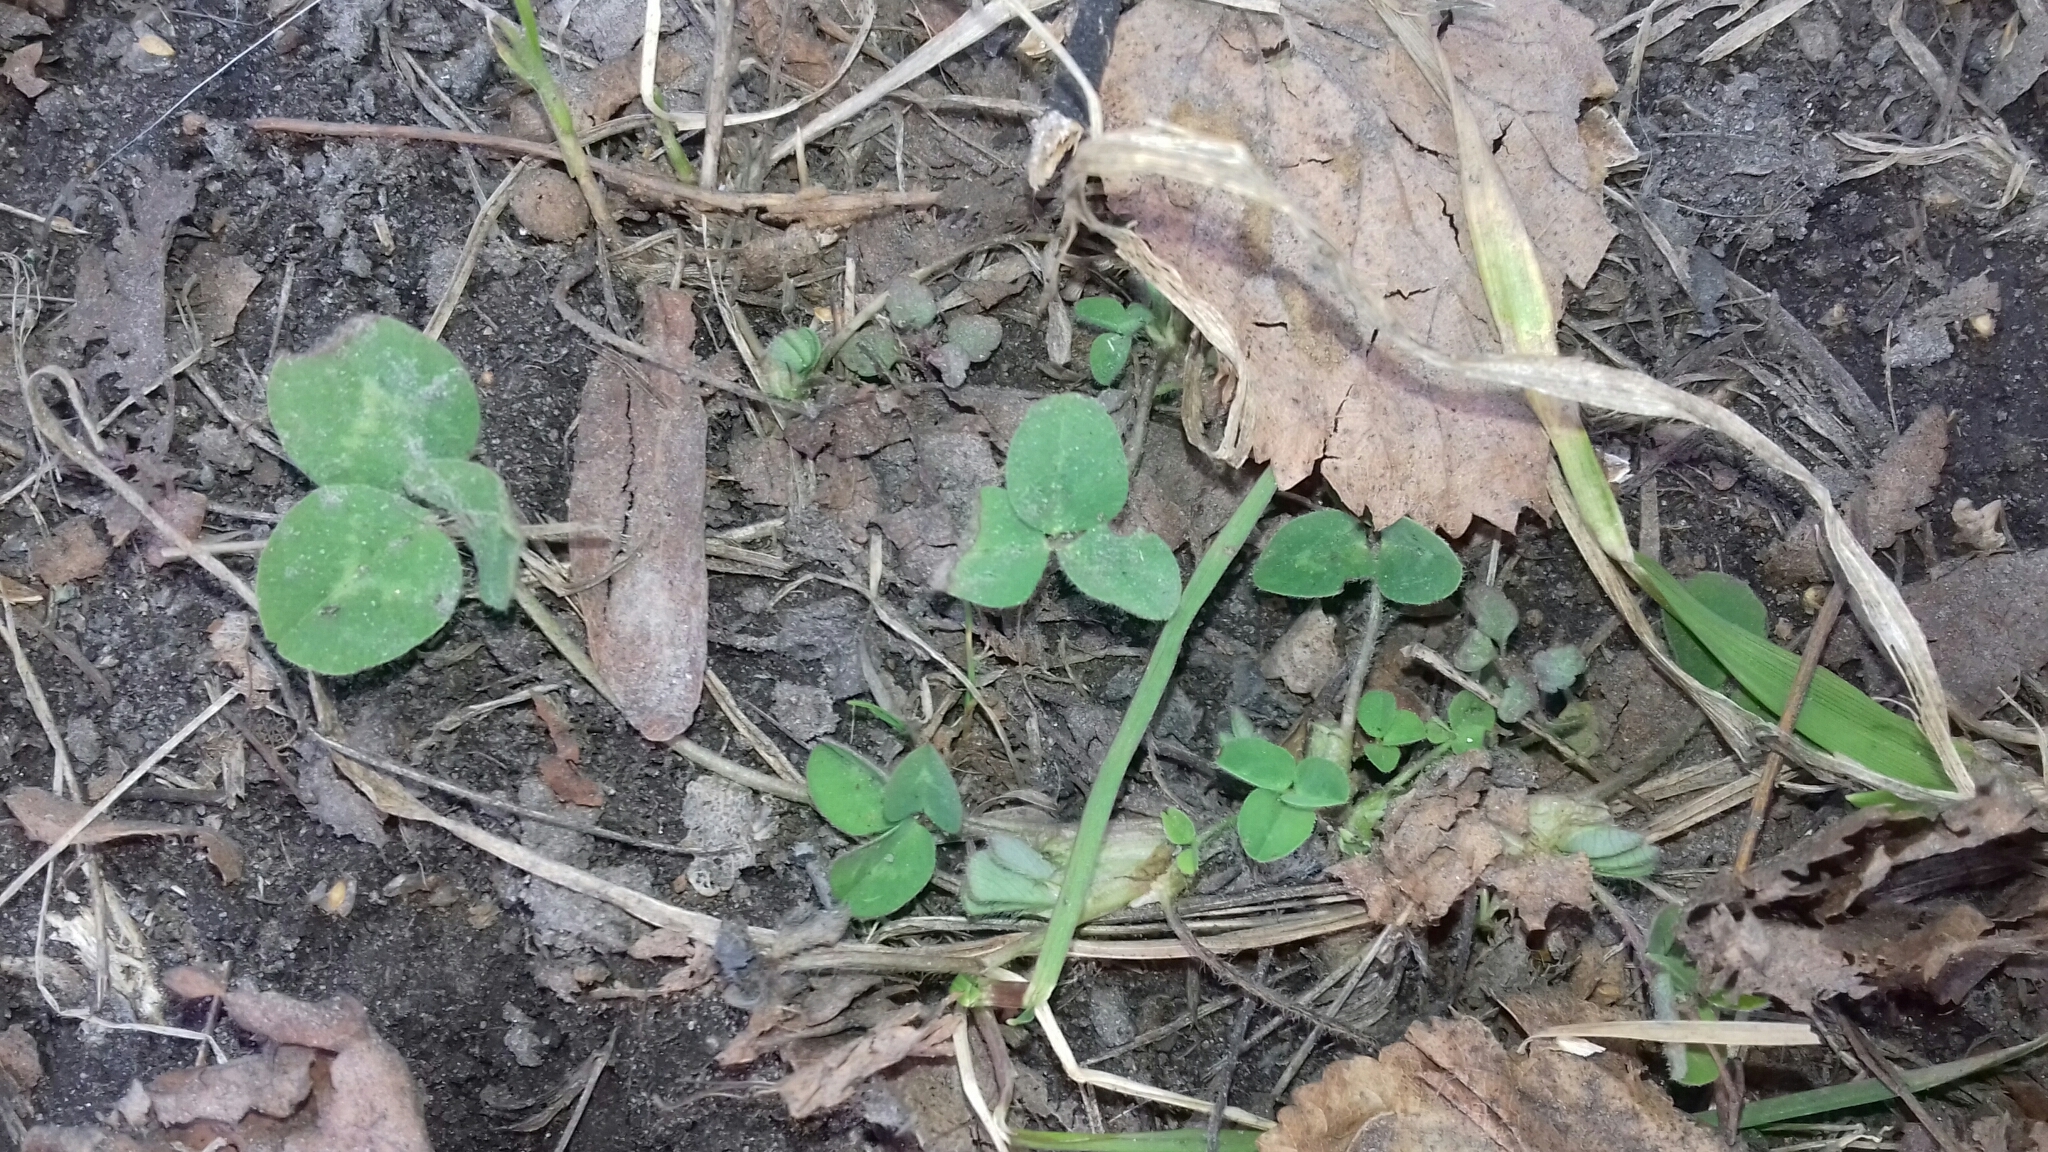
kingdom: Plantae
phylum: Tracheophyta
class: Magnoliopsida
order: Fabales
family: Fabaceae
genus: Trifolium
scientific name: Trifolium pratense
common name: Red clover
